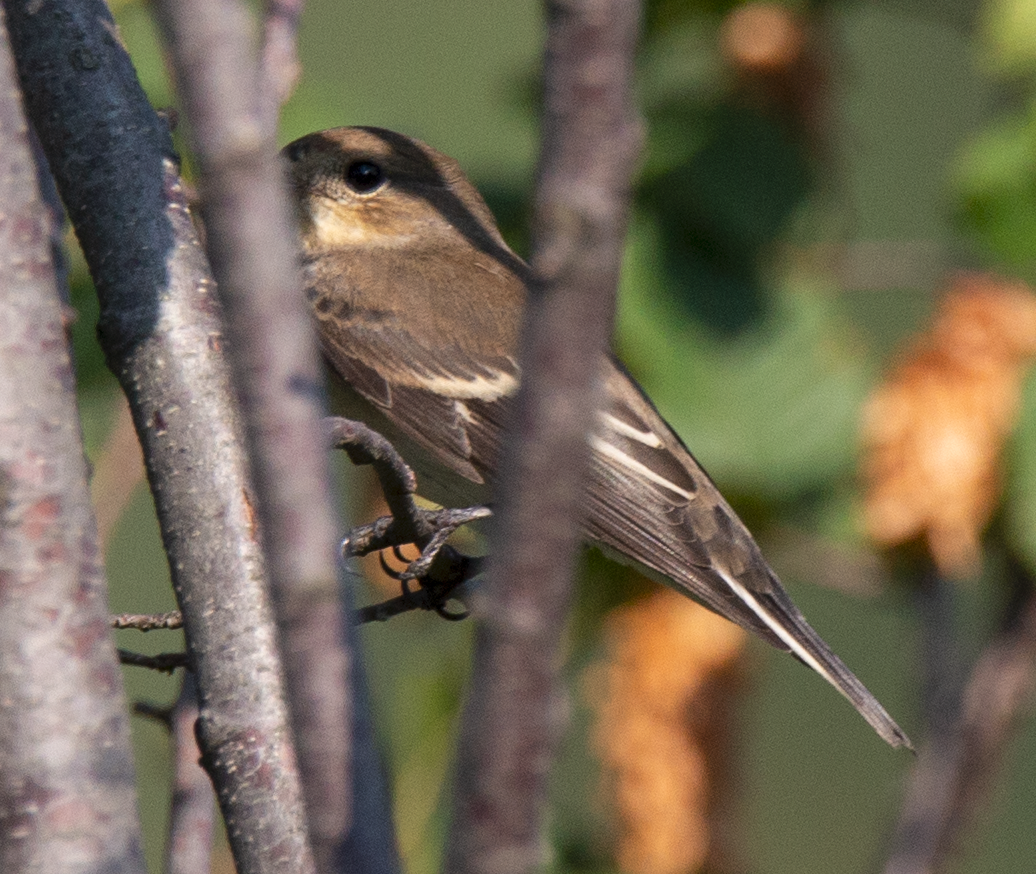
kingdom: Animalia
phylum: Chordata
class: Aves
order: Passeriformes
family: Muscicapidae
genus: Ficedula
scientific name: Ficedula hypoleuca
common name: European pied flycatcher
